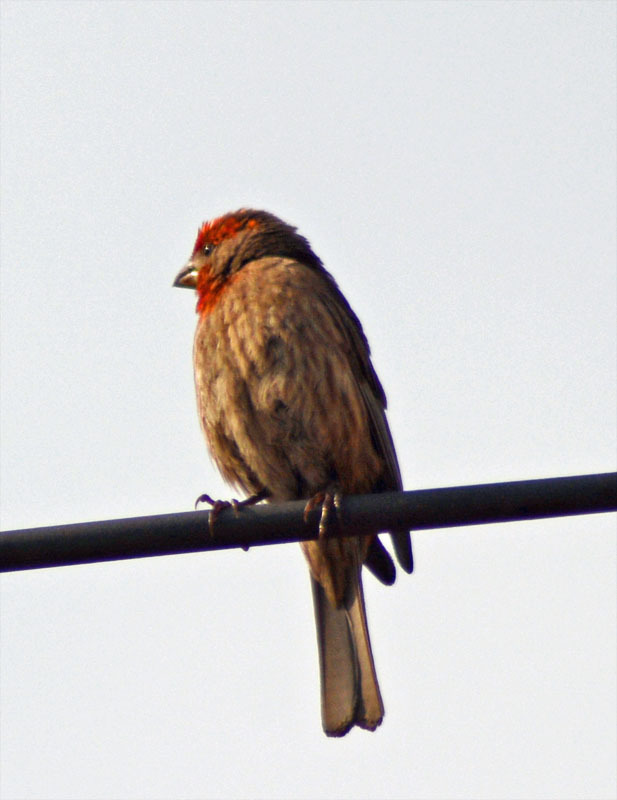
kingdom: Animalia
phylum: Chordata
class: Aves
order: Passeriformes
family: Fringillidae
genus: Haemorhous
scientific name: Haemorhous mexicanus
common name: House finch
